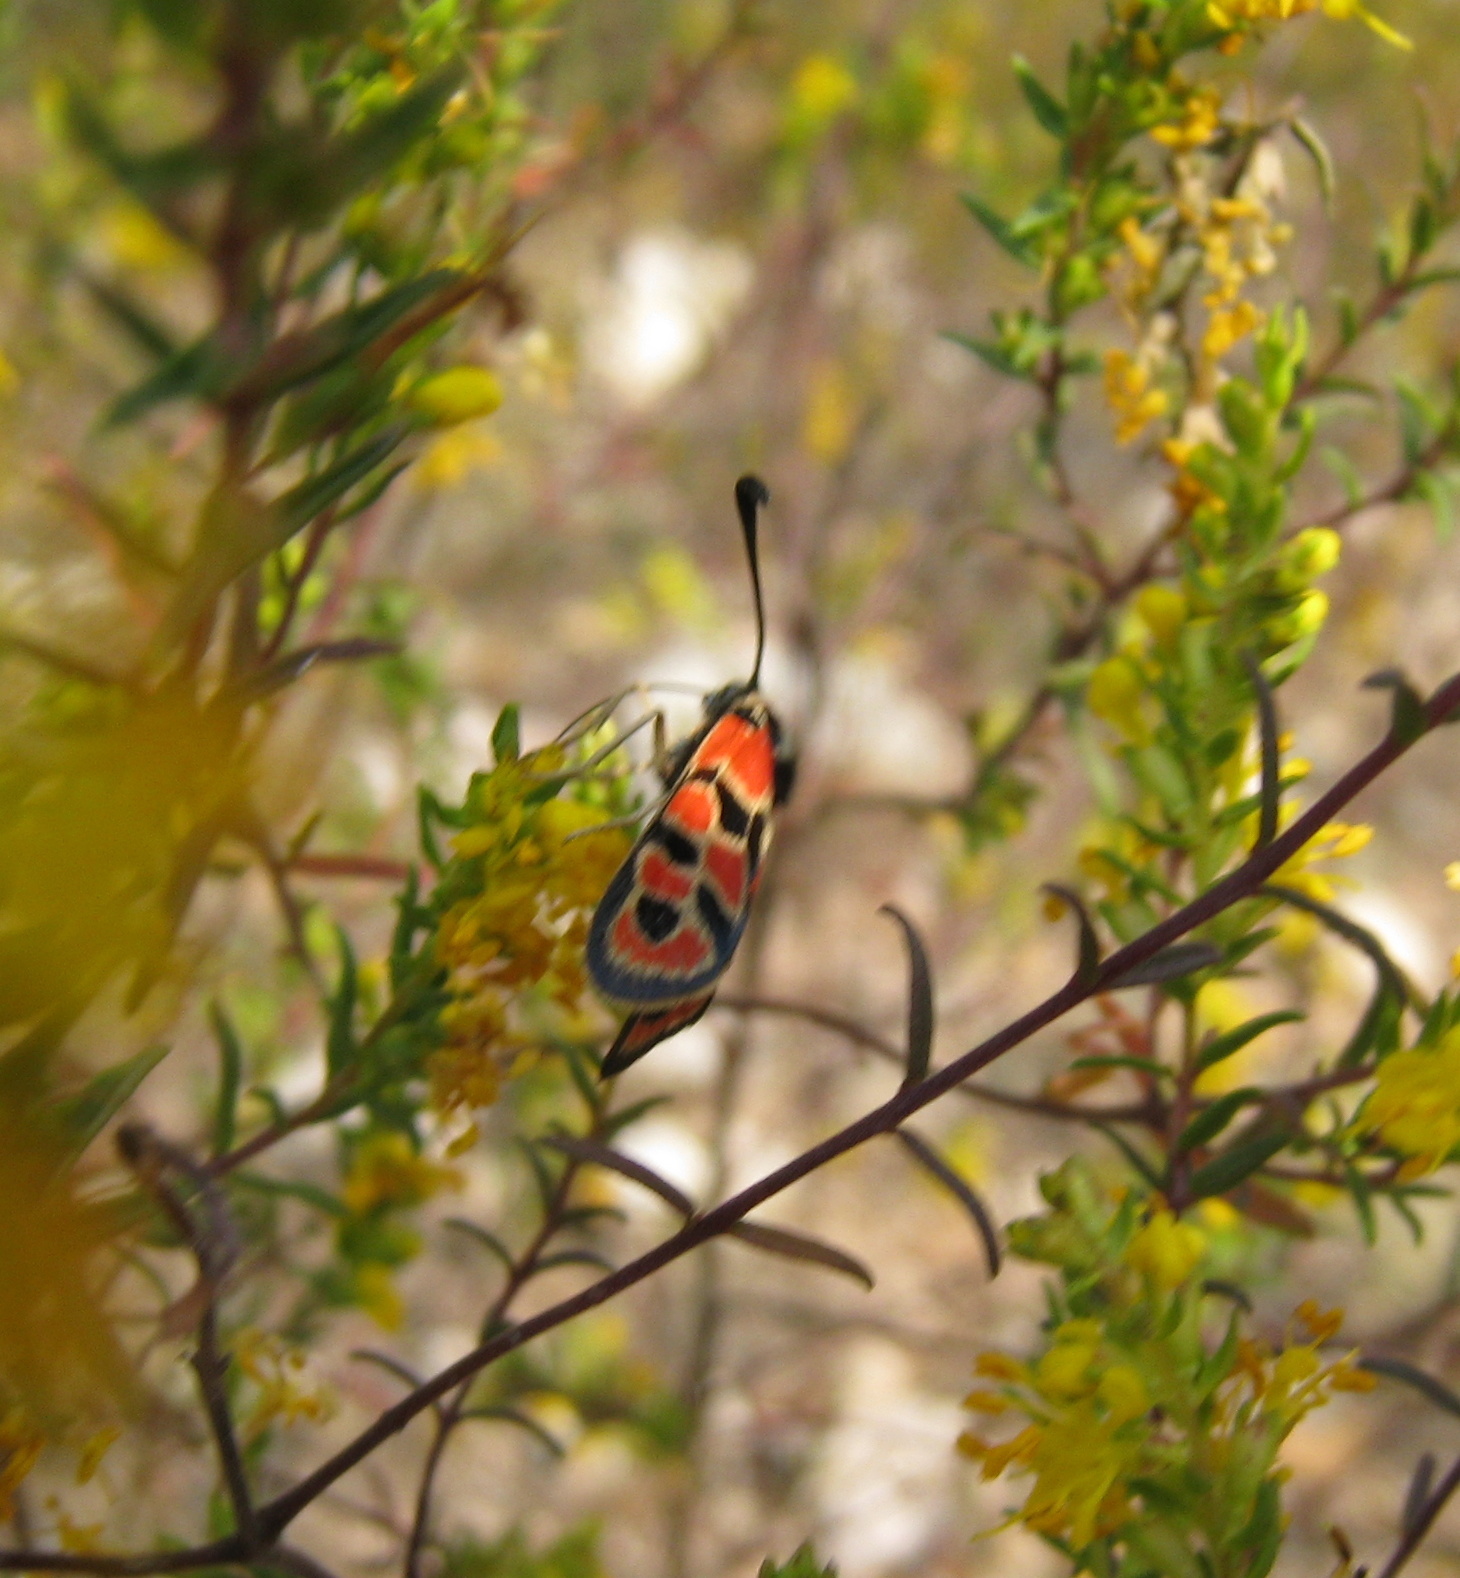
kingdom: Animalia
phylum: Arthropoda
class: Insecta
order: Lepidoptera
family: Zygaenidae
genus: Zygaena
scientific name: Zygaena fausta
